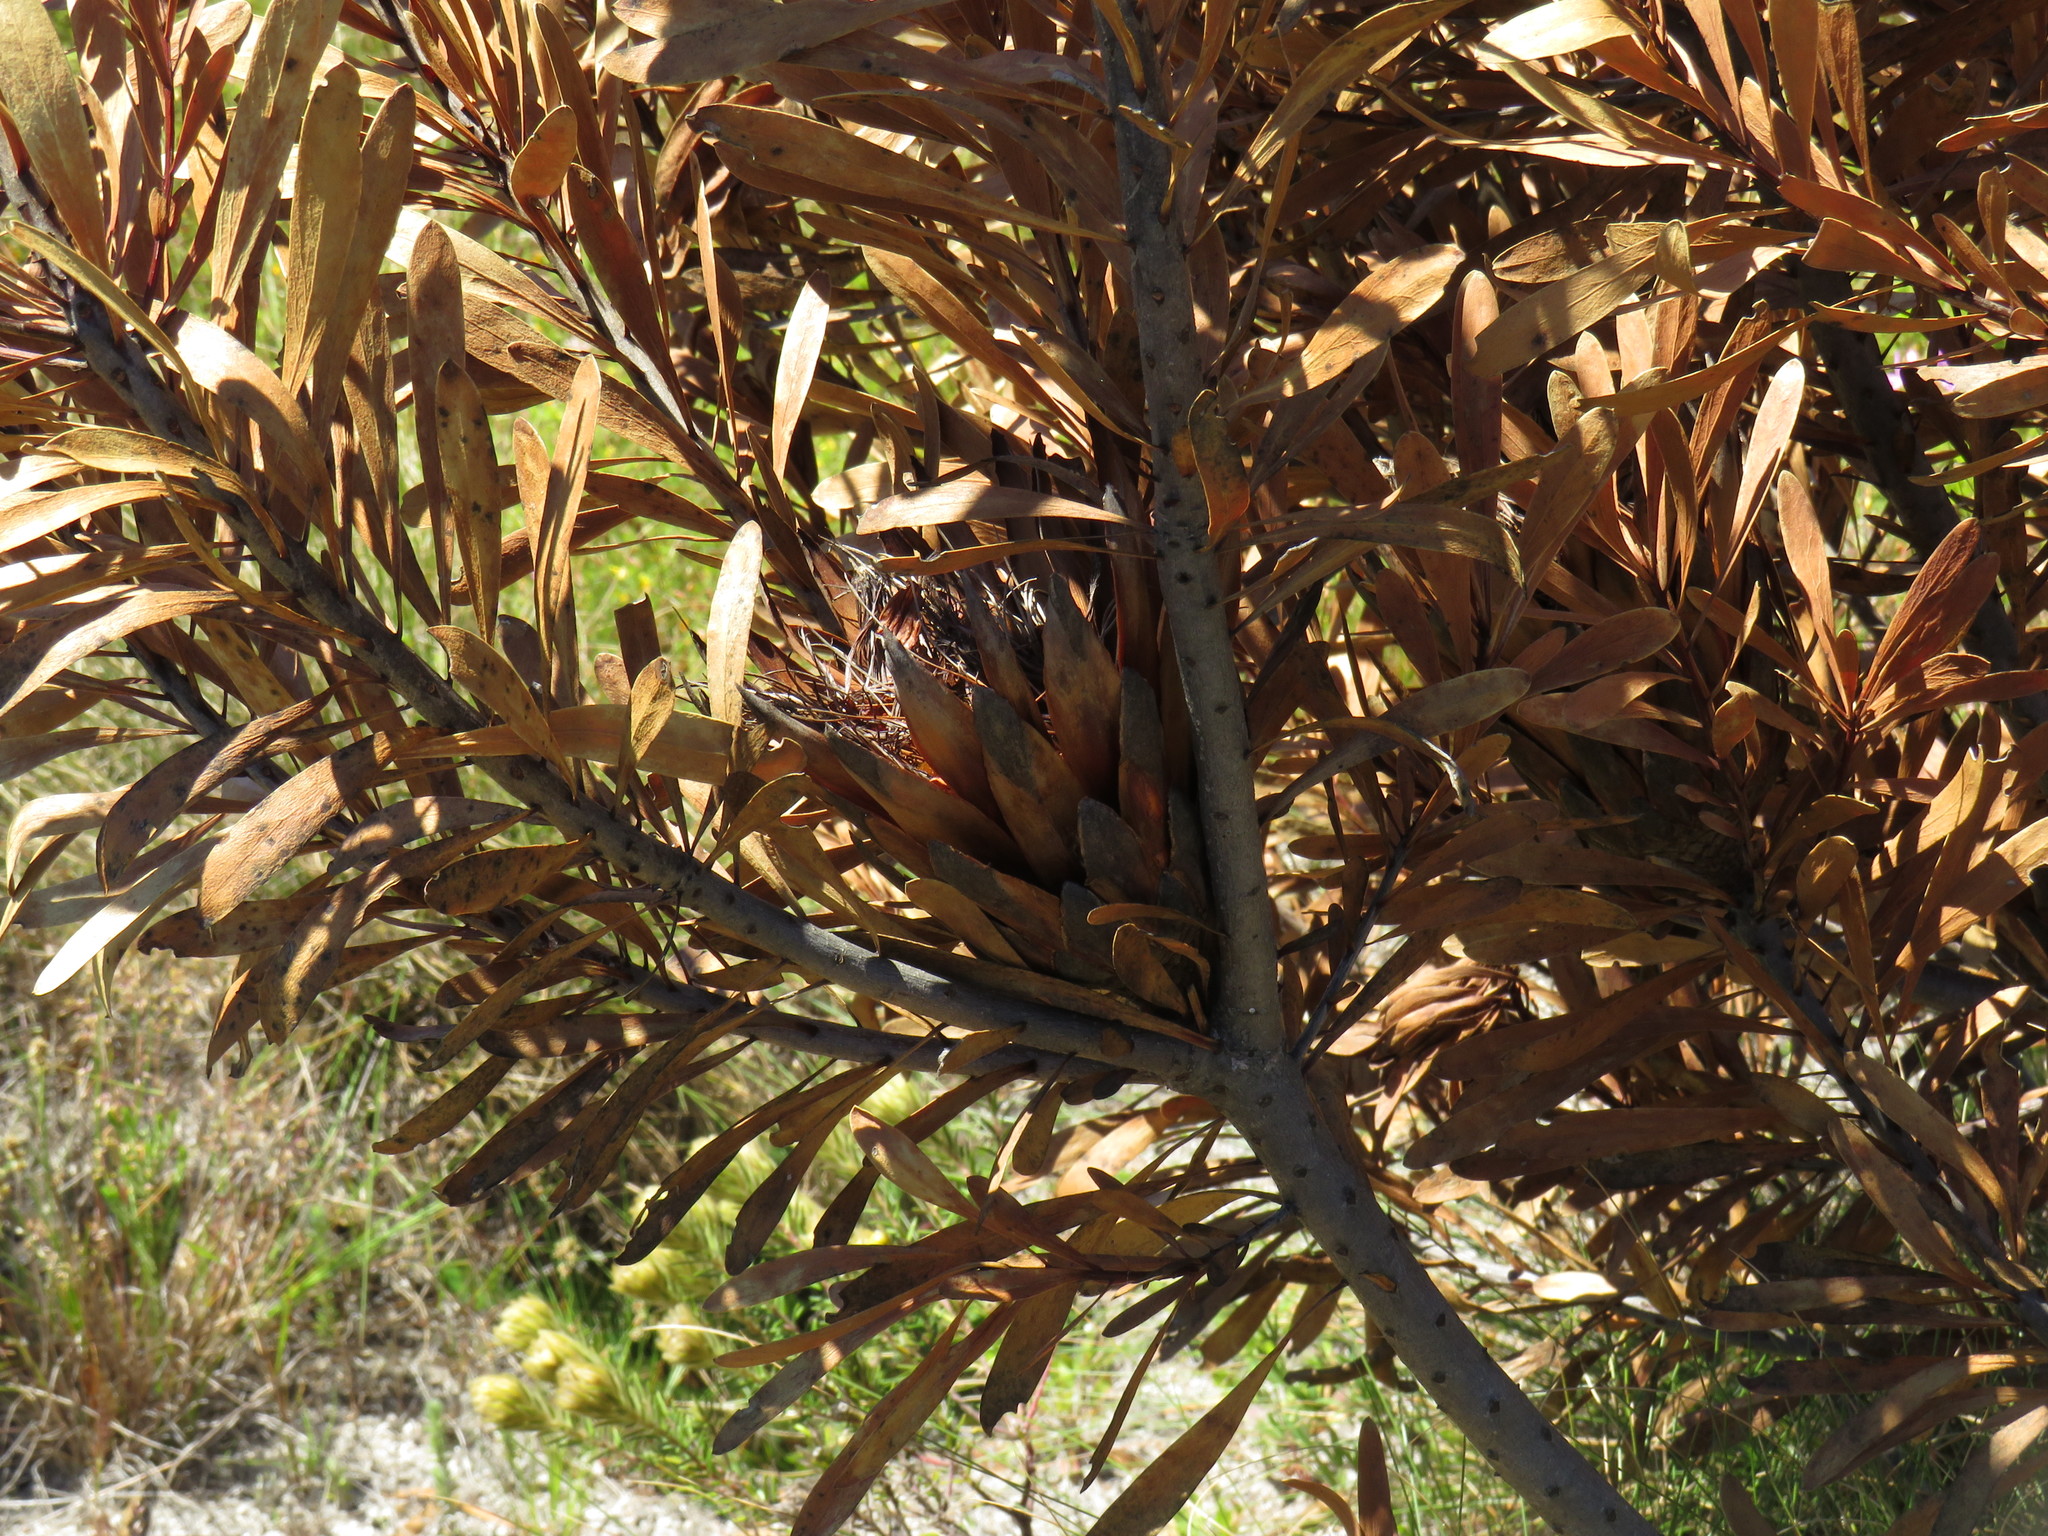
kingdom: Plantae
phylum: Tracheophyta
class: Magnoliopsida
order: Proteales
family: Proteaceae
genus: Protea
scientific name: Protea repens
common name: Sugarbush
